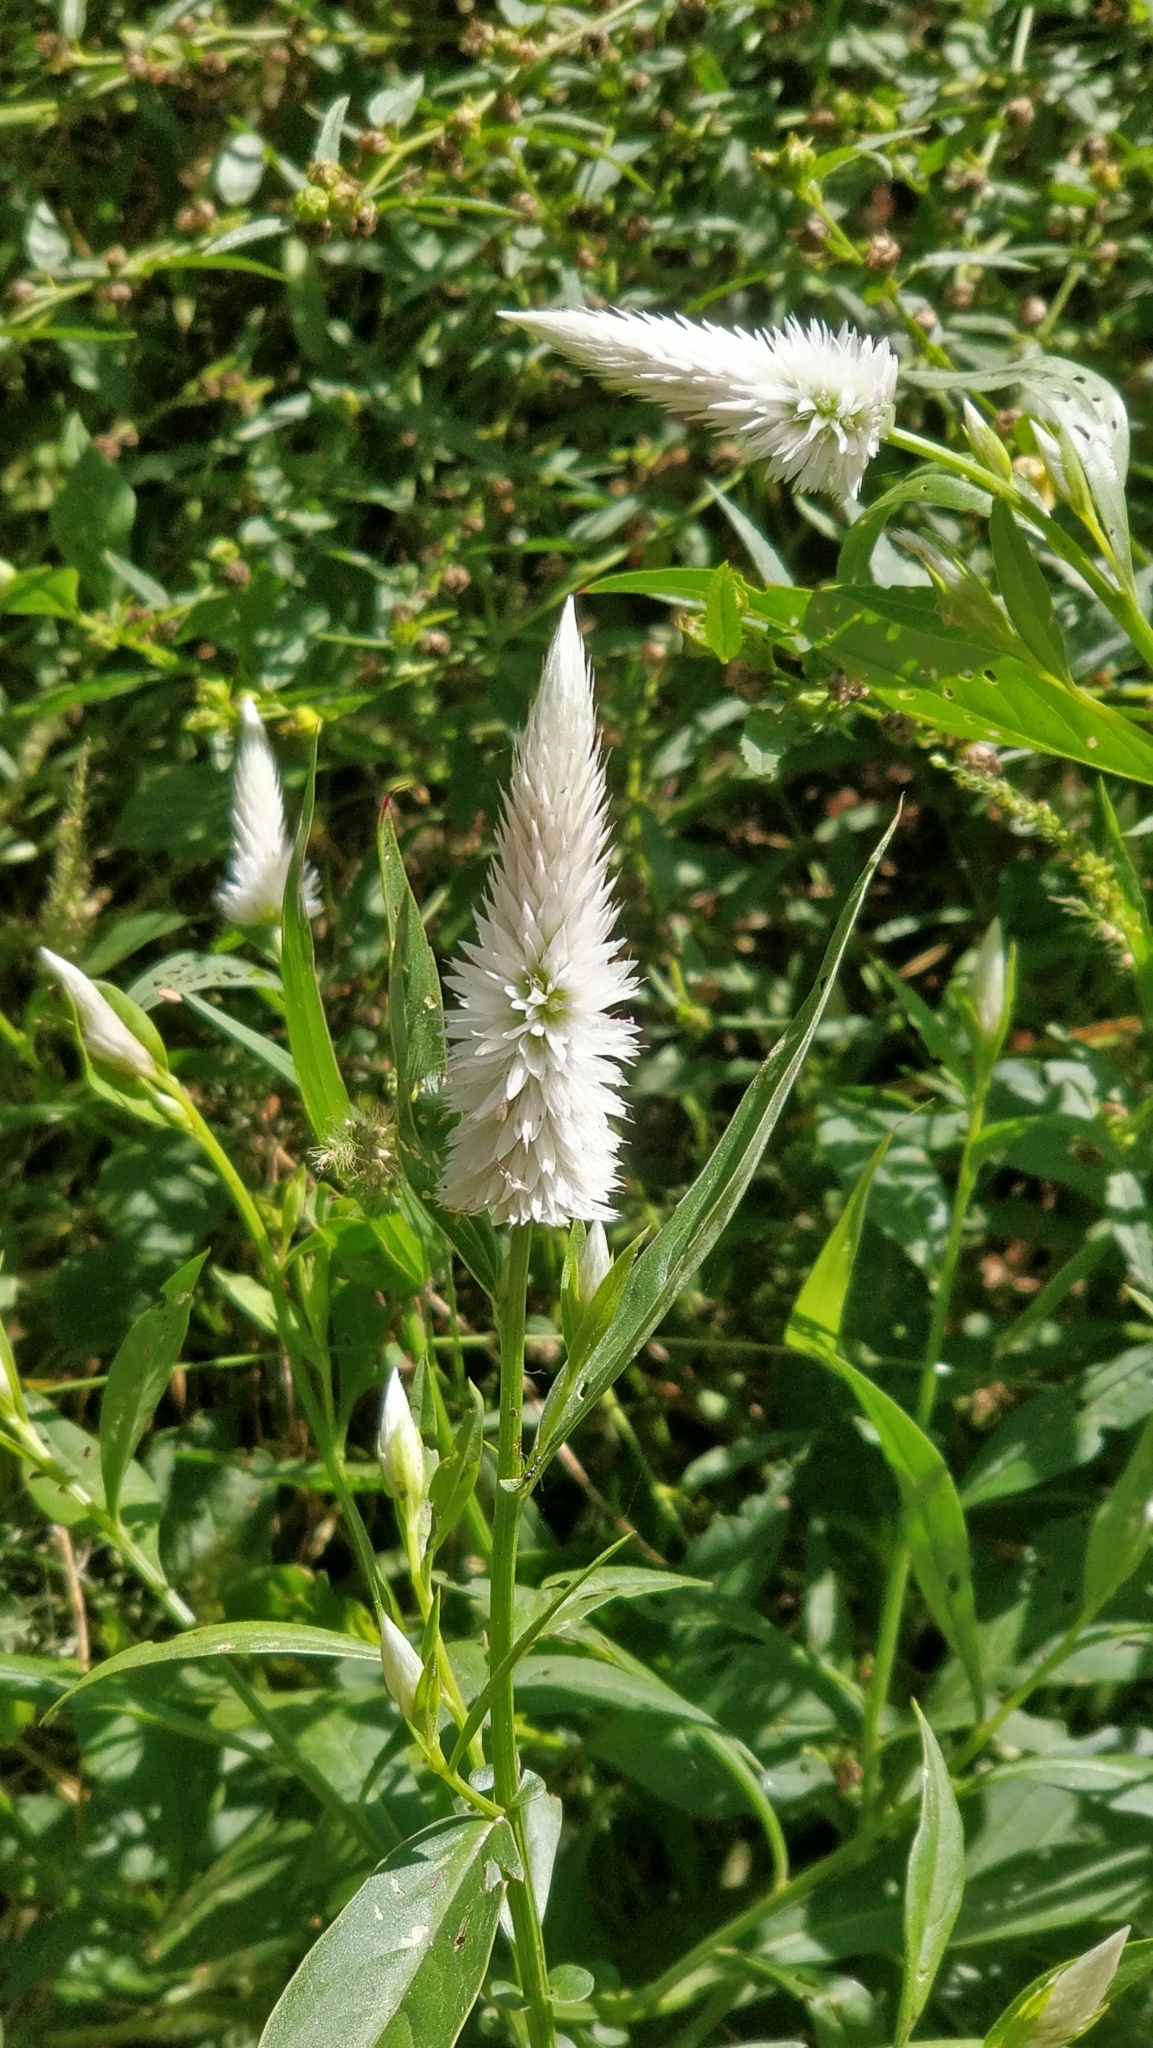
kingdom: Plantae
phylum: Tracheophyta
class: Magnoliopsida
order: Caryophyllales
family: Amaranthaceae
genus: Celosia
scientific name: Celosia argentea
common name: Feather cockscomb
